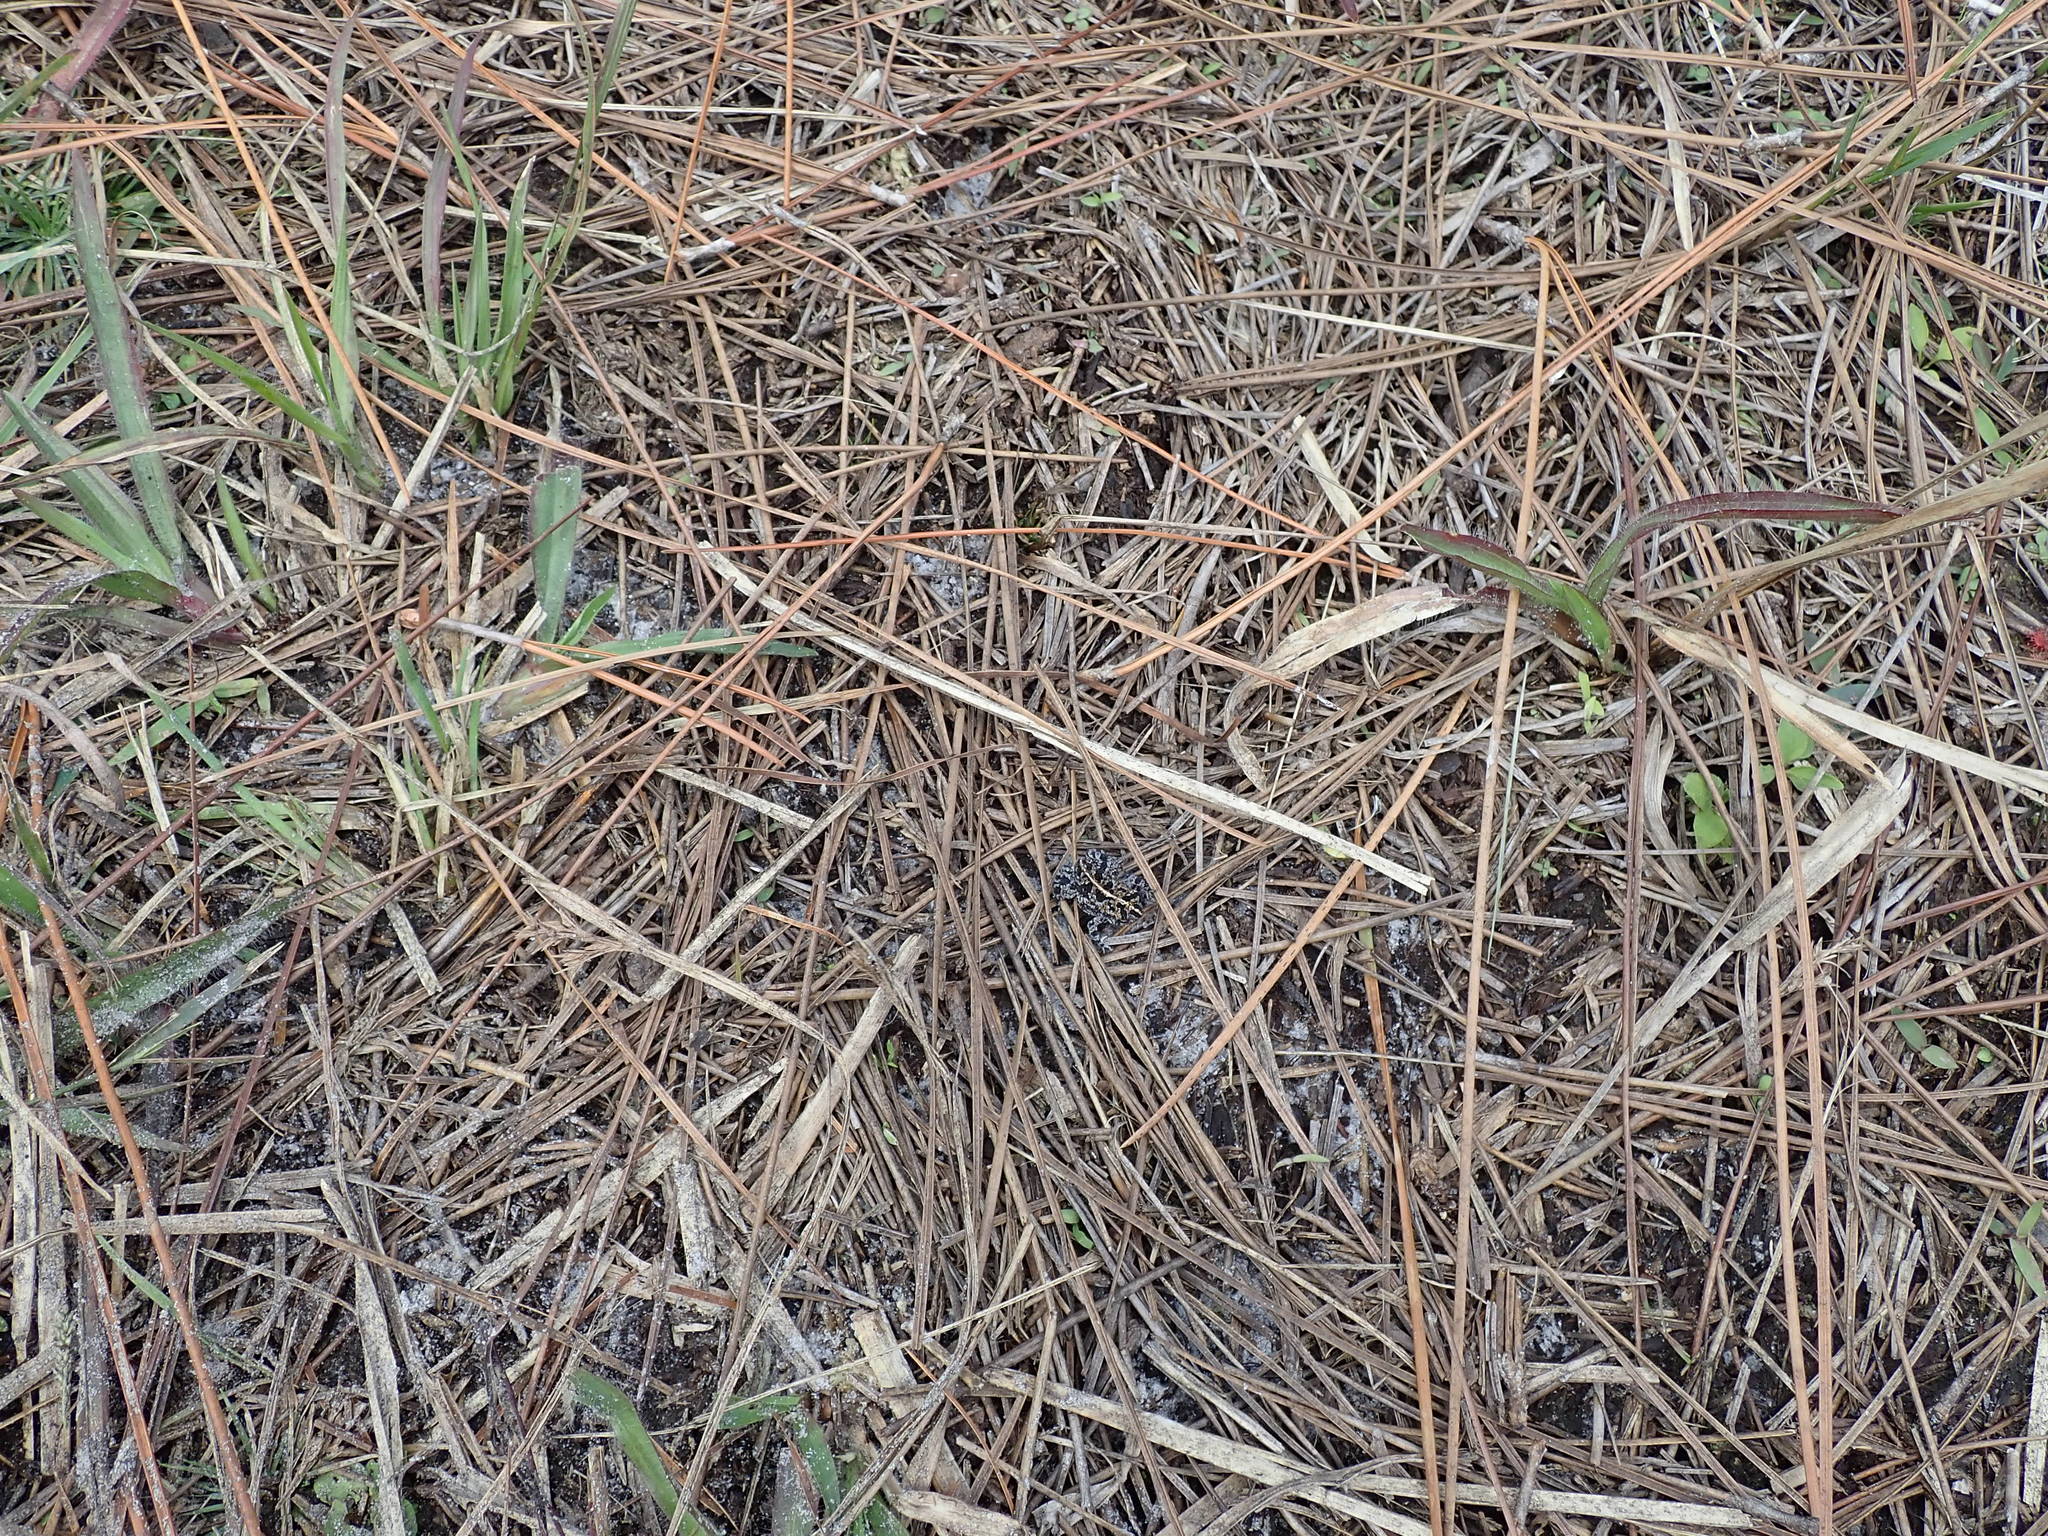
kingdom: Animalia
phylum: Chordata
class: Amphibia
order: Anura
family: Bufonidae
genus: Anaxyrus
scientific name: Anaxyrus quercicus
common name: Oak toad
